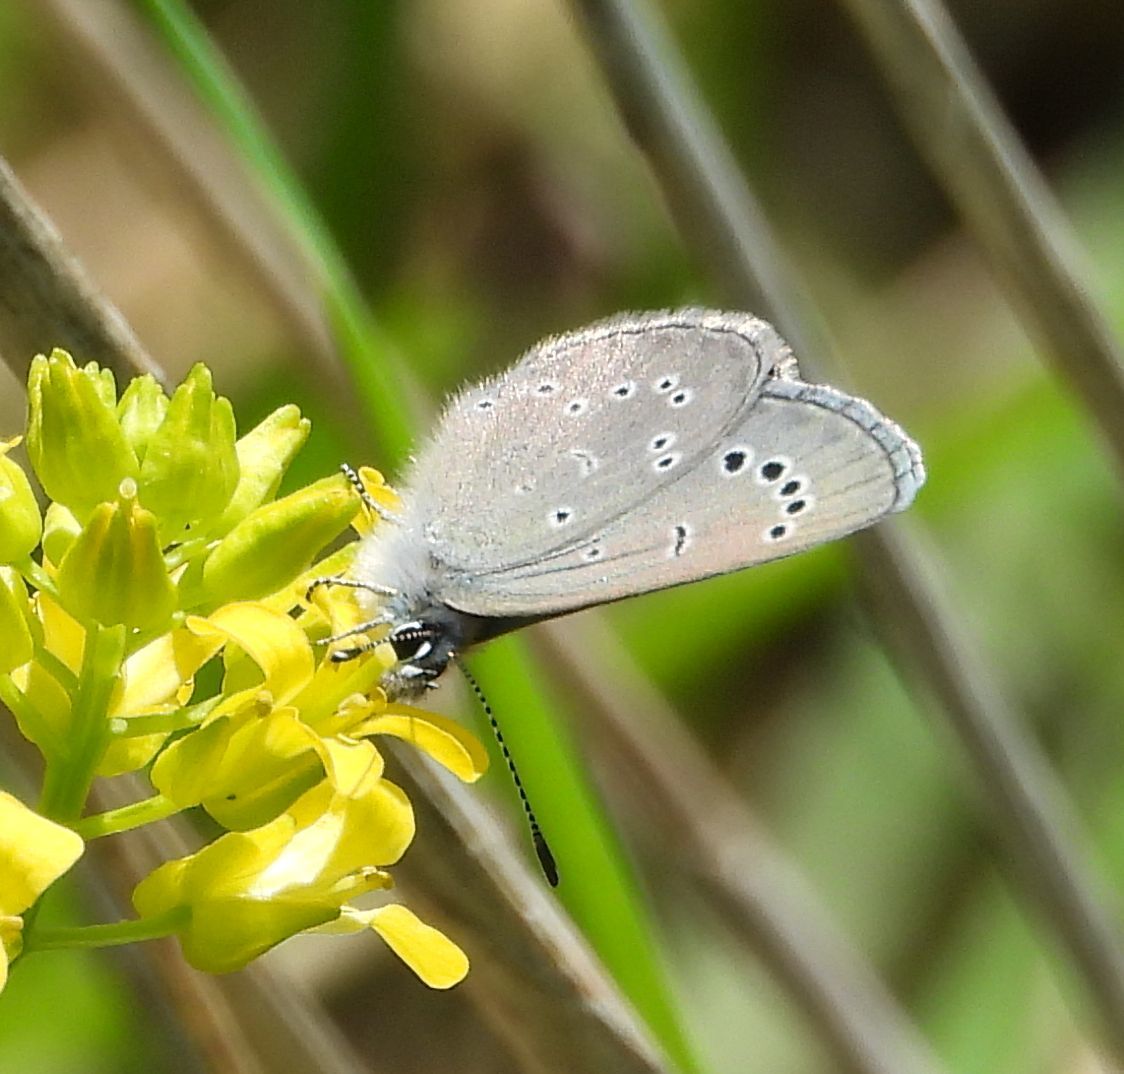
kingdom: Animalia
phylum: Arthropoda
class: Insecta
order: Lepidoptera
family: Lycaenidae
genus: Glaucopsyche
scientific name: Glaucopsyche lygdamus
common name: Silvery blue
